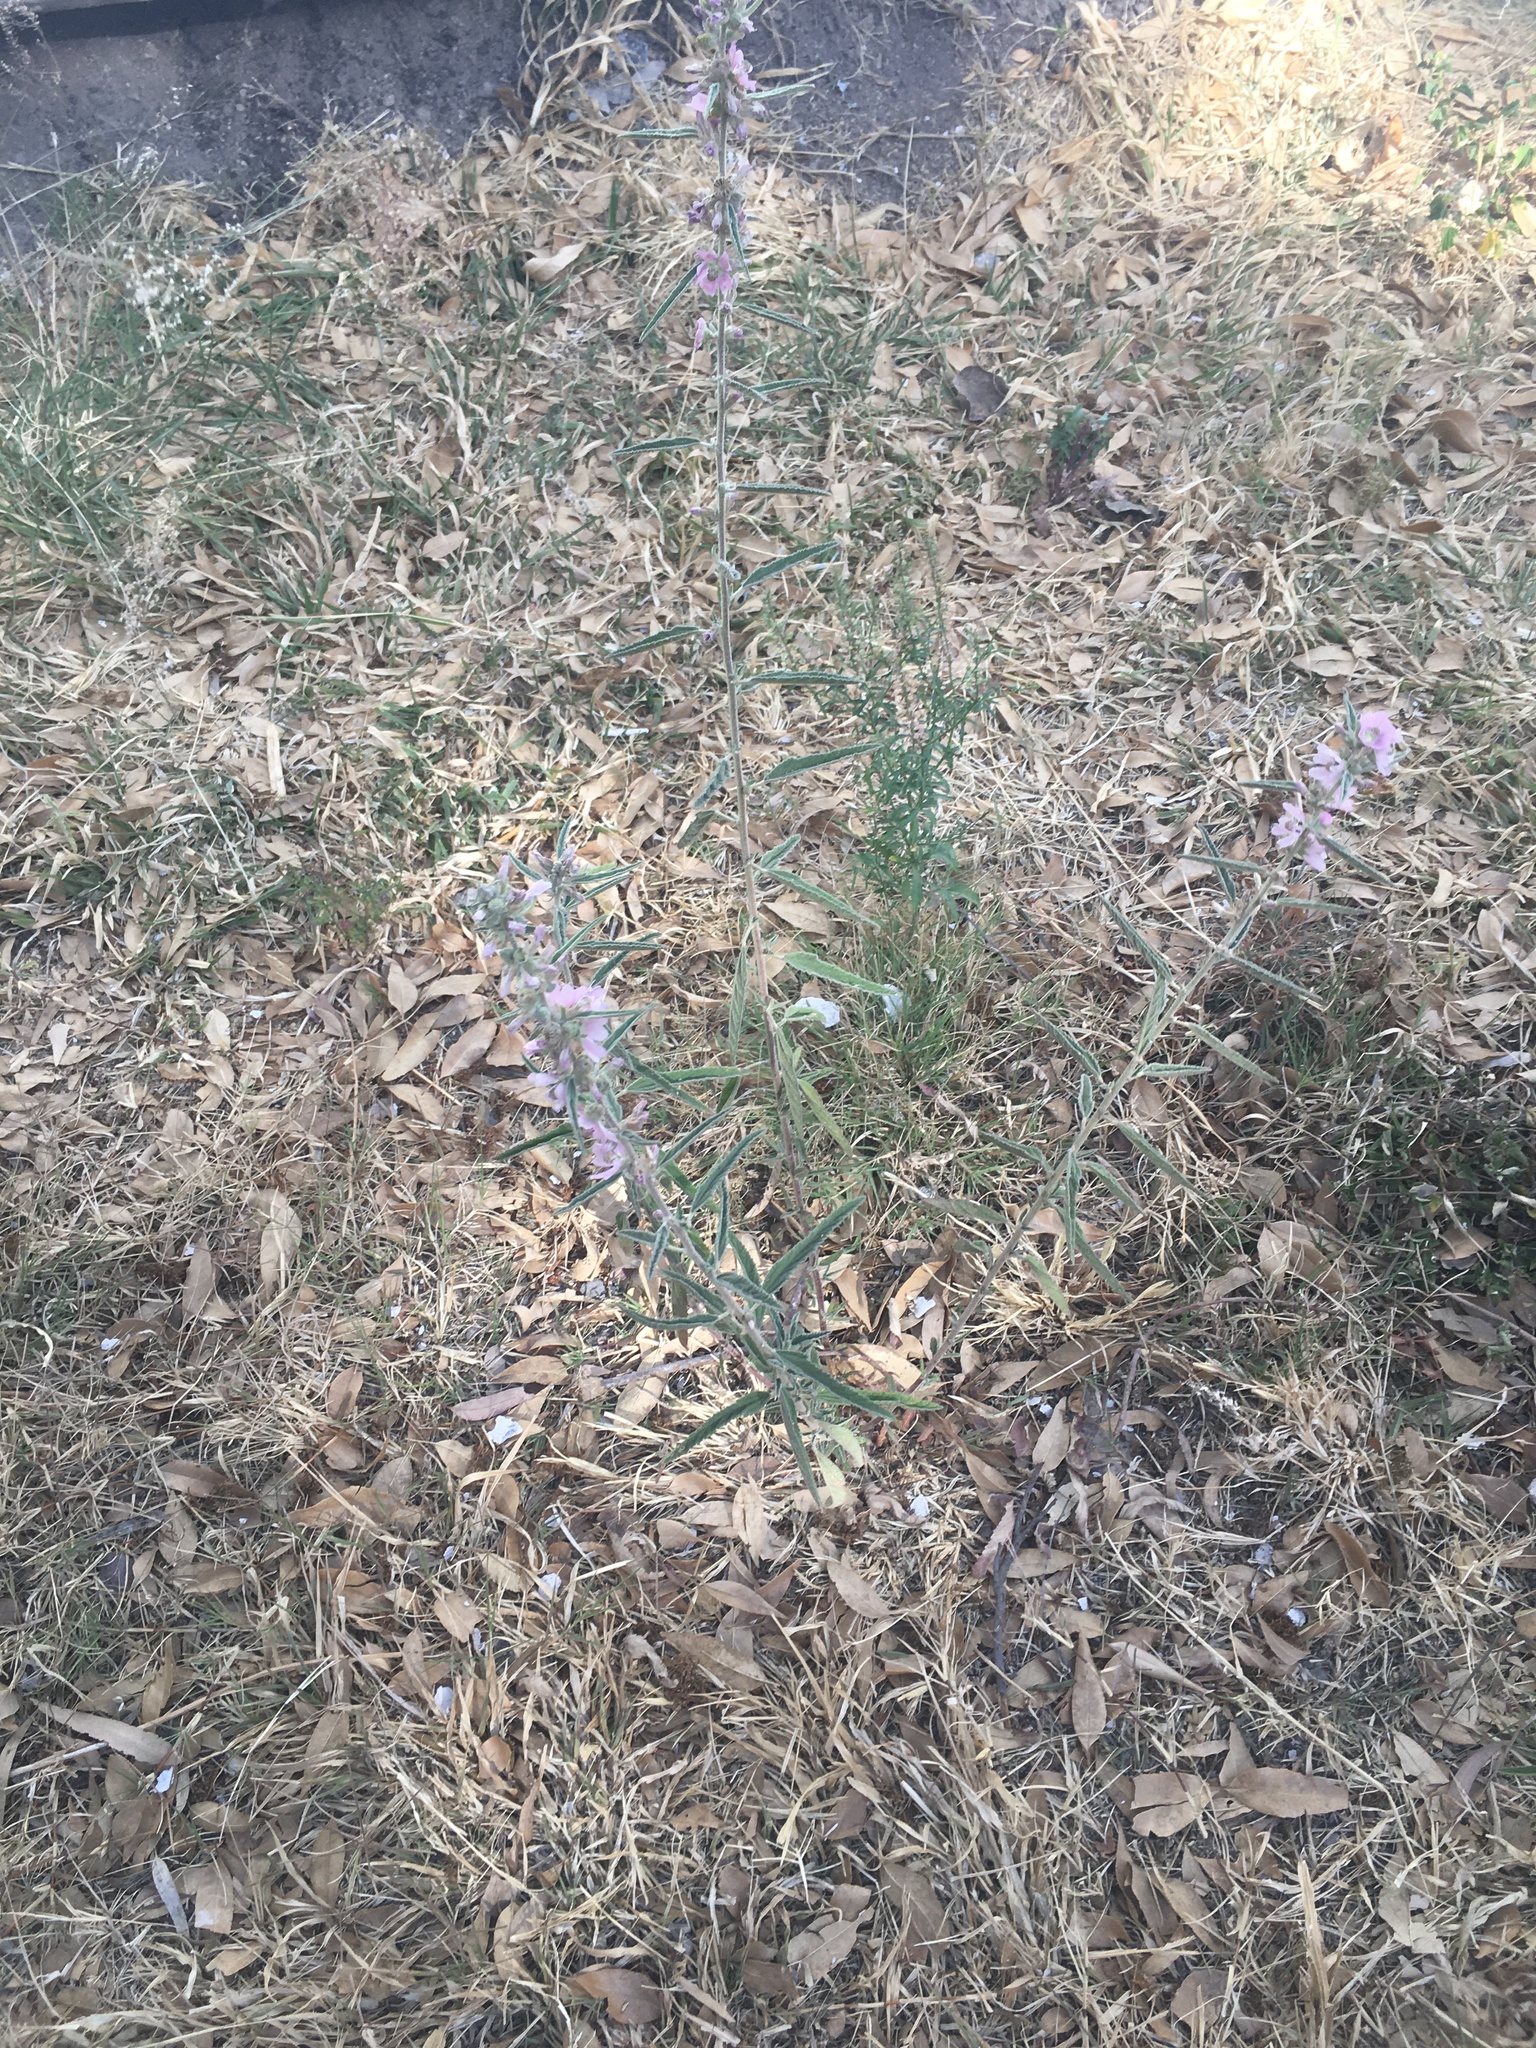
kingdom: Plantae
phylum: Tracheophyta
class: Magnoliopsida
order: Malvales
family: Malvaceae
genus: Sphaeralcea
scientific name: Sphaeralcea angustifolia
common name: Copper globe-mallow
